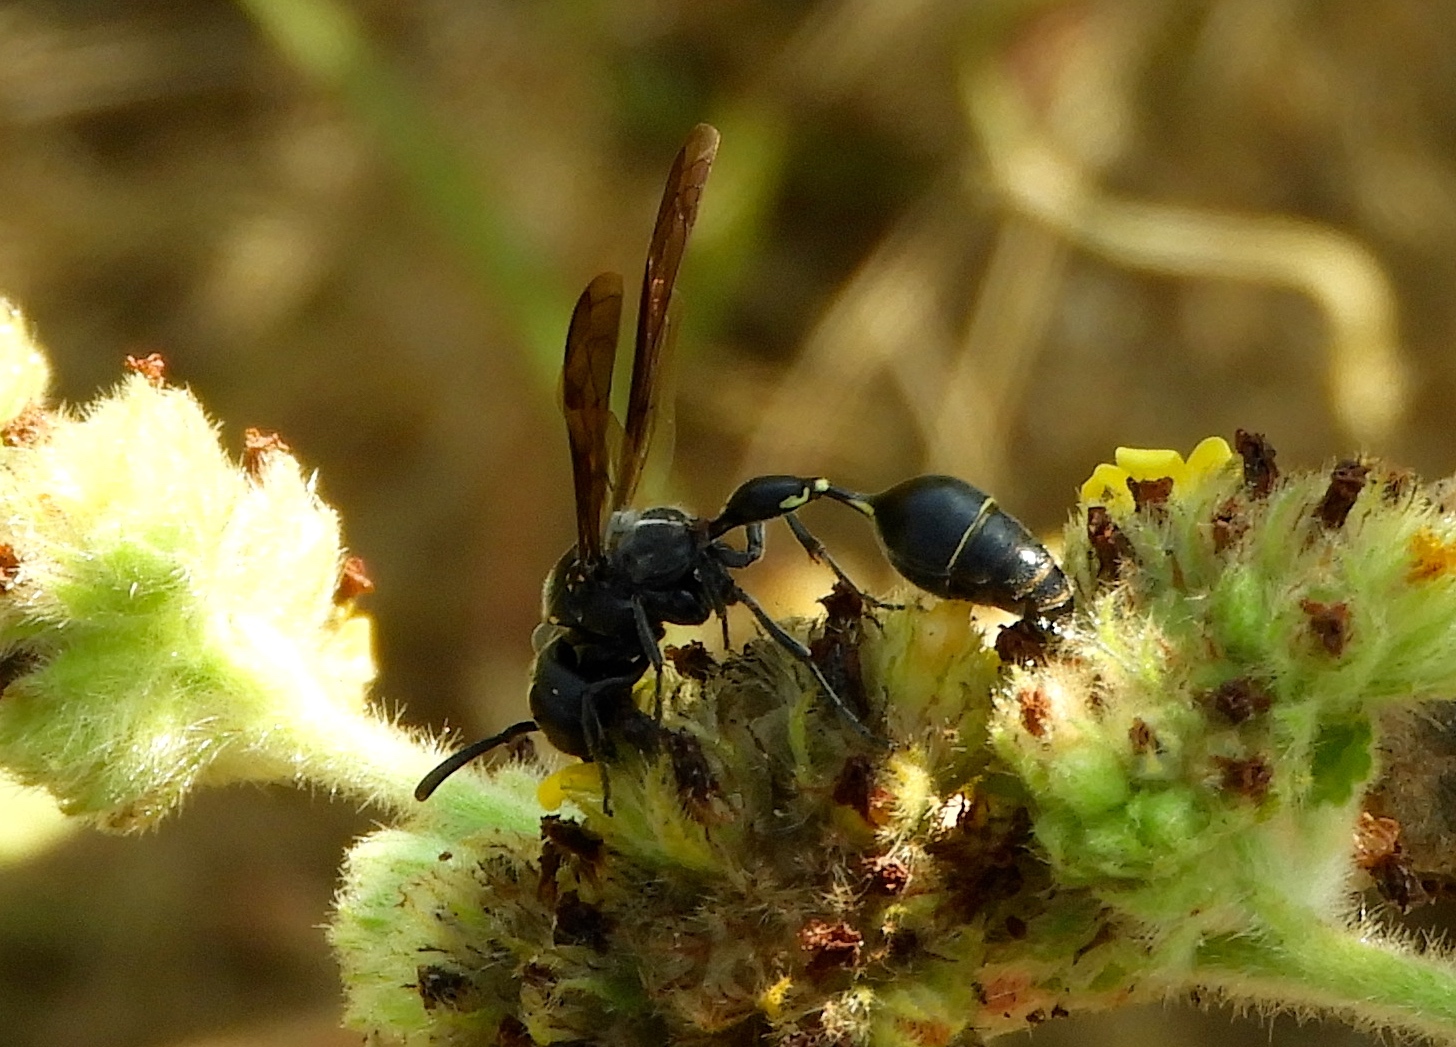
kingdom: Animalia
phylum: Arthropoda
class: Insecta
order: Hymenoptera
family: Eumenidae
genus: Zethus
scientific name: Zethus miscogaster
